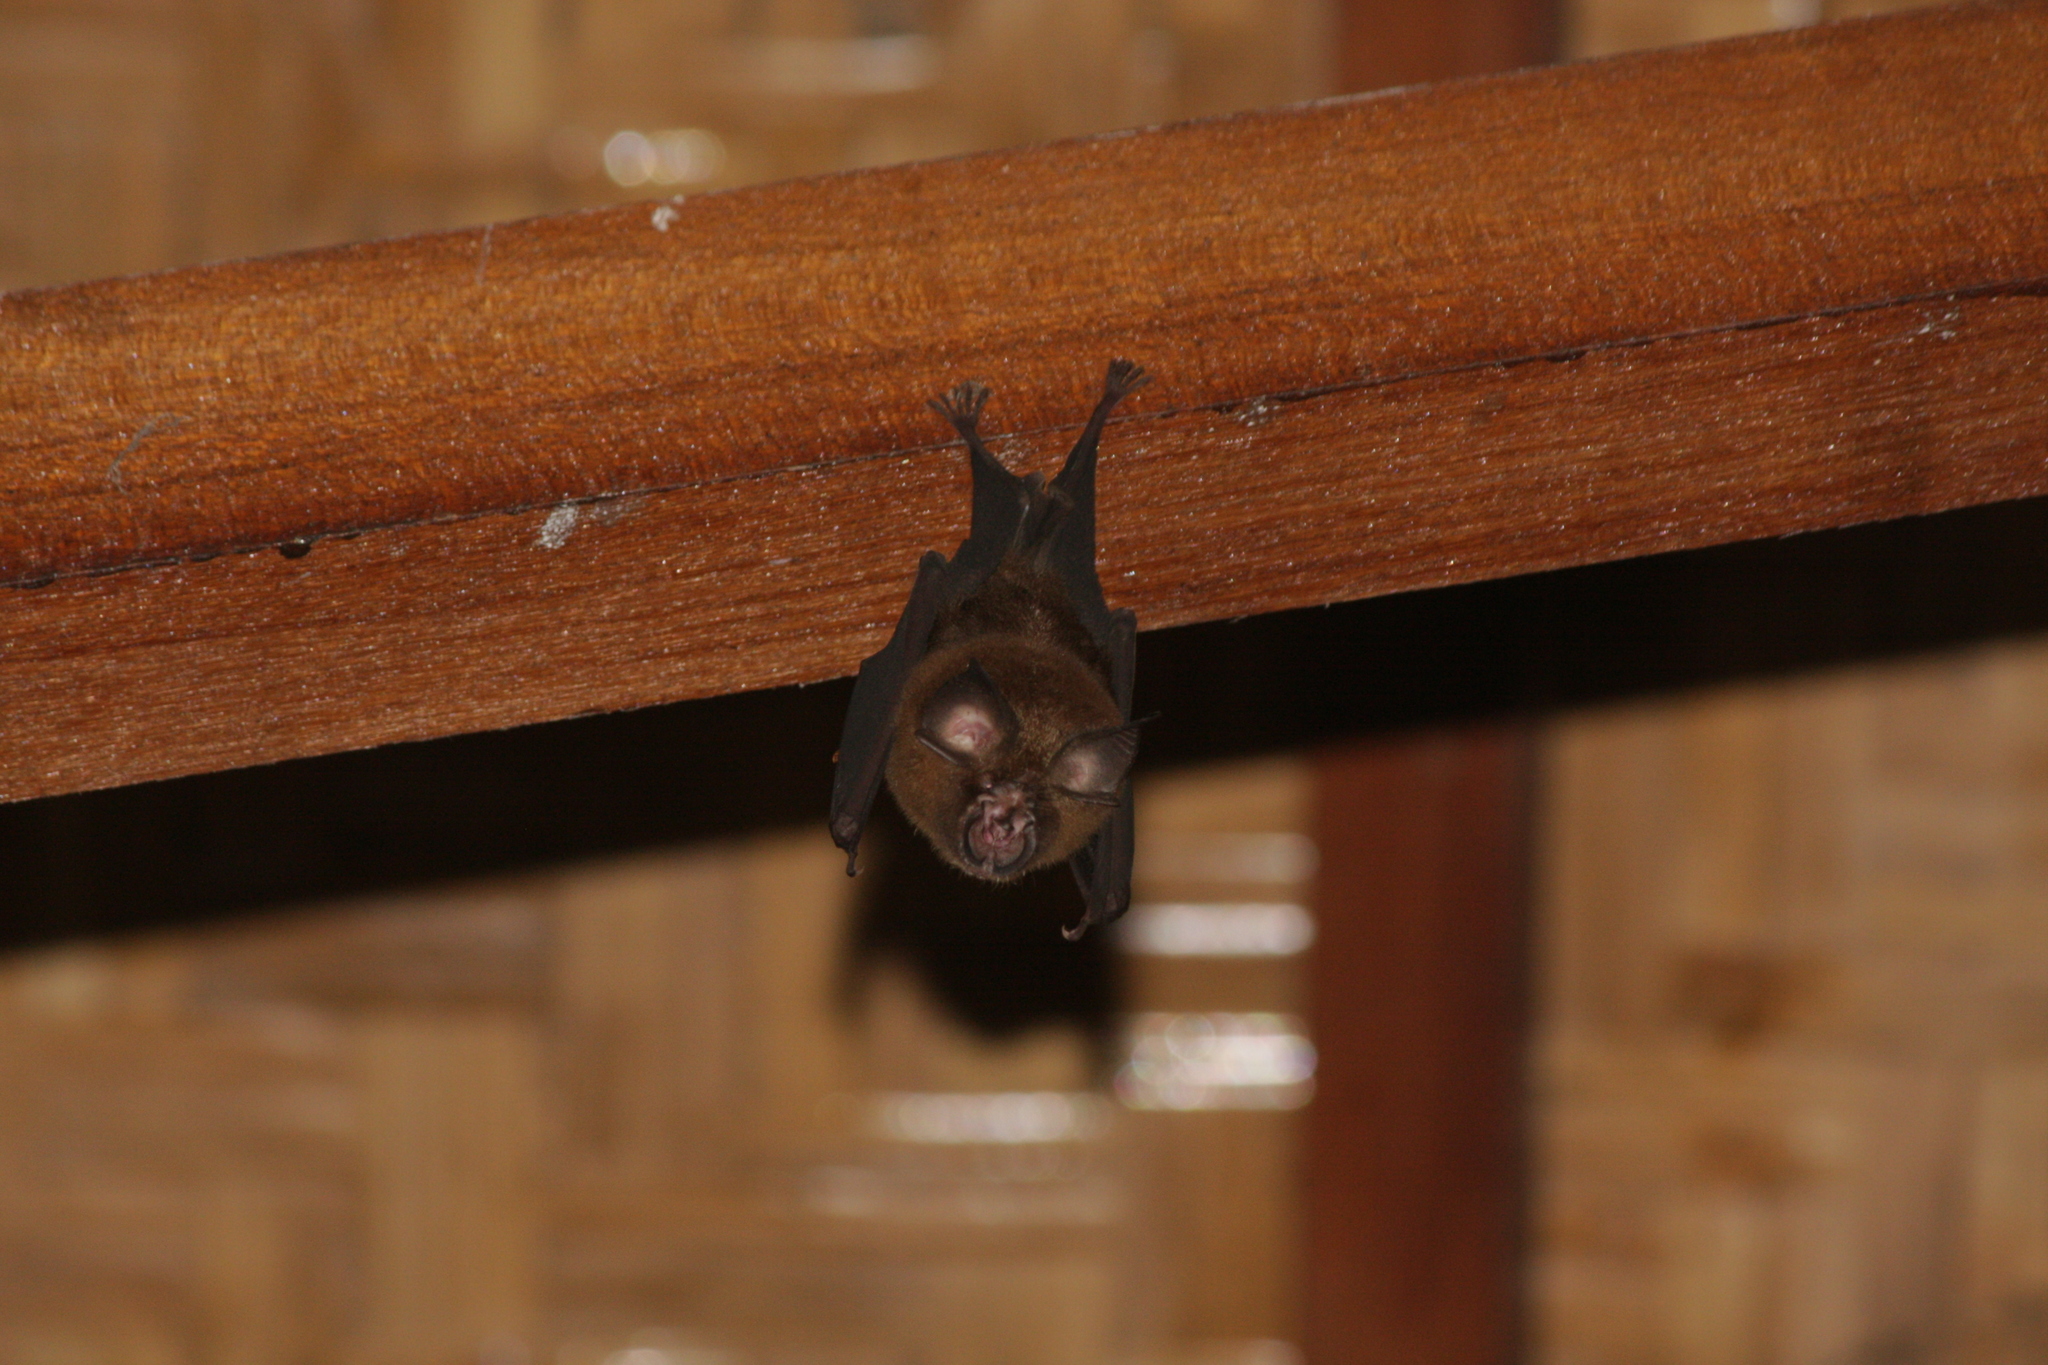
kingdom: Animalia
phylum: Chordata
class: Mammalia
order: Chiroptera
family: Rhinolophidae
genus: Rhinolophus
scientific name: Rhinolophus affinis
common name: Intermediate horseshoe bat
